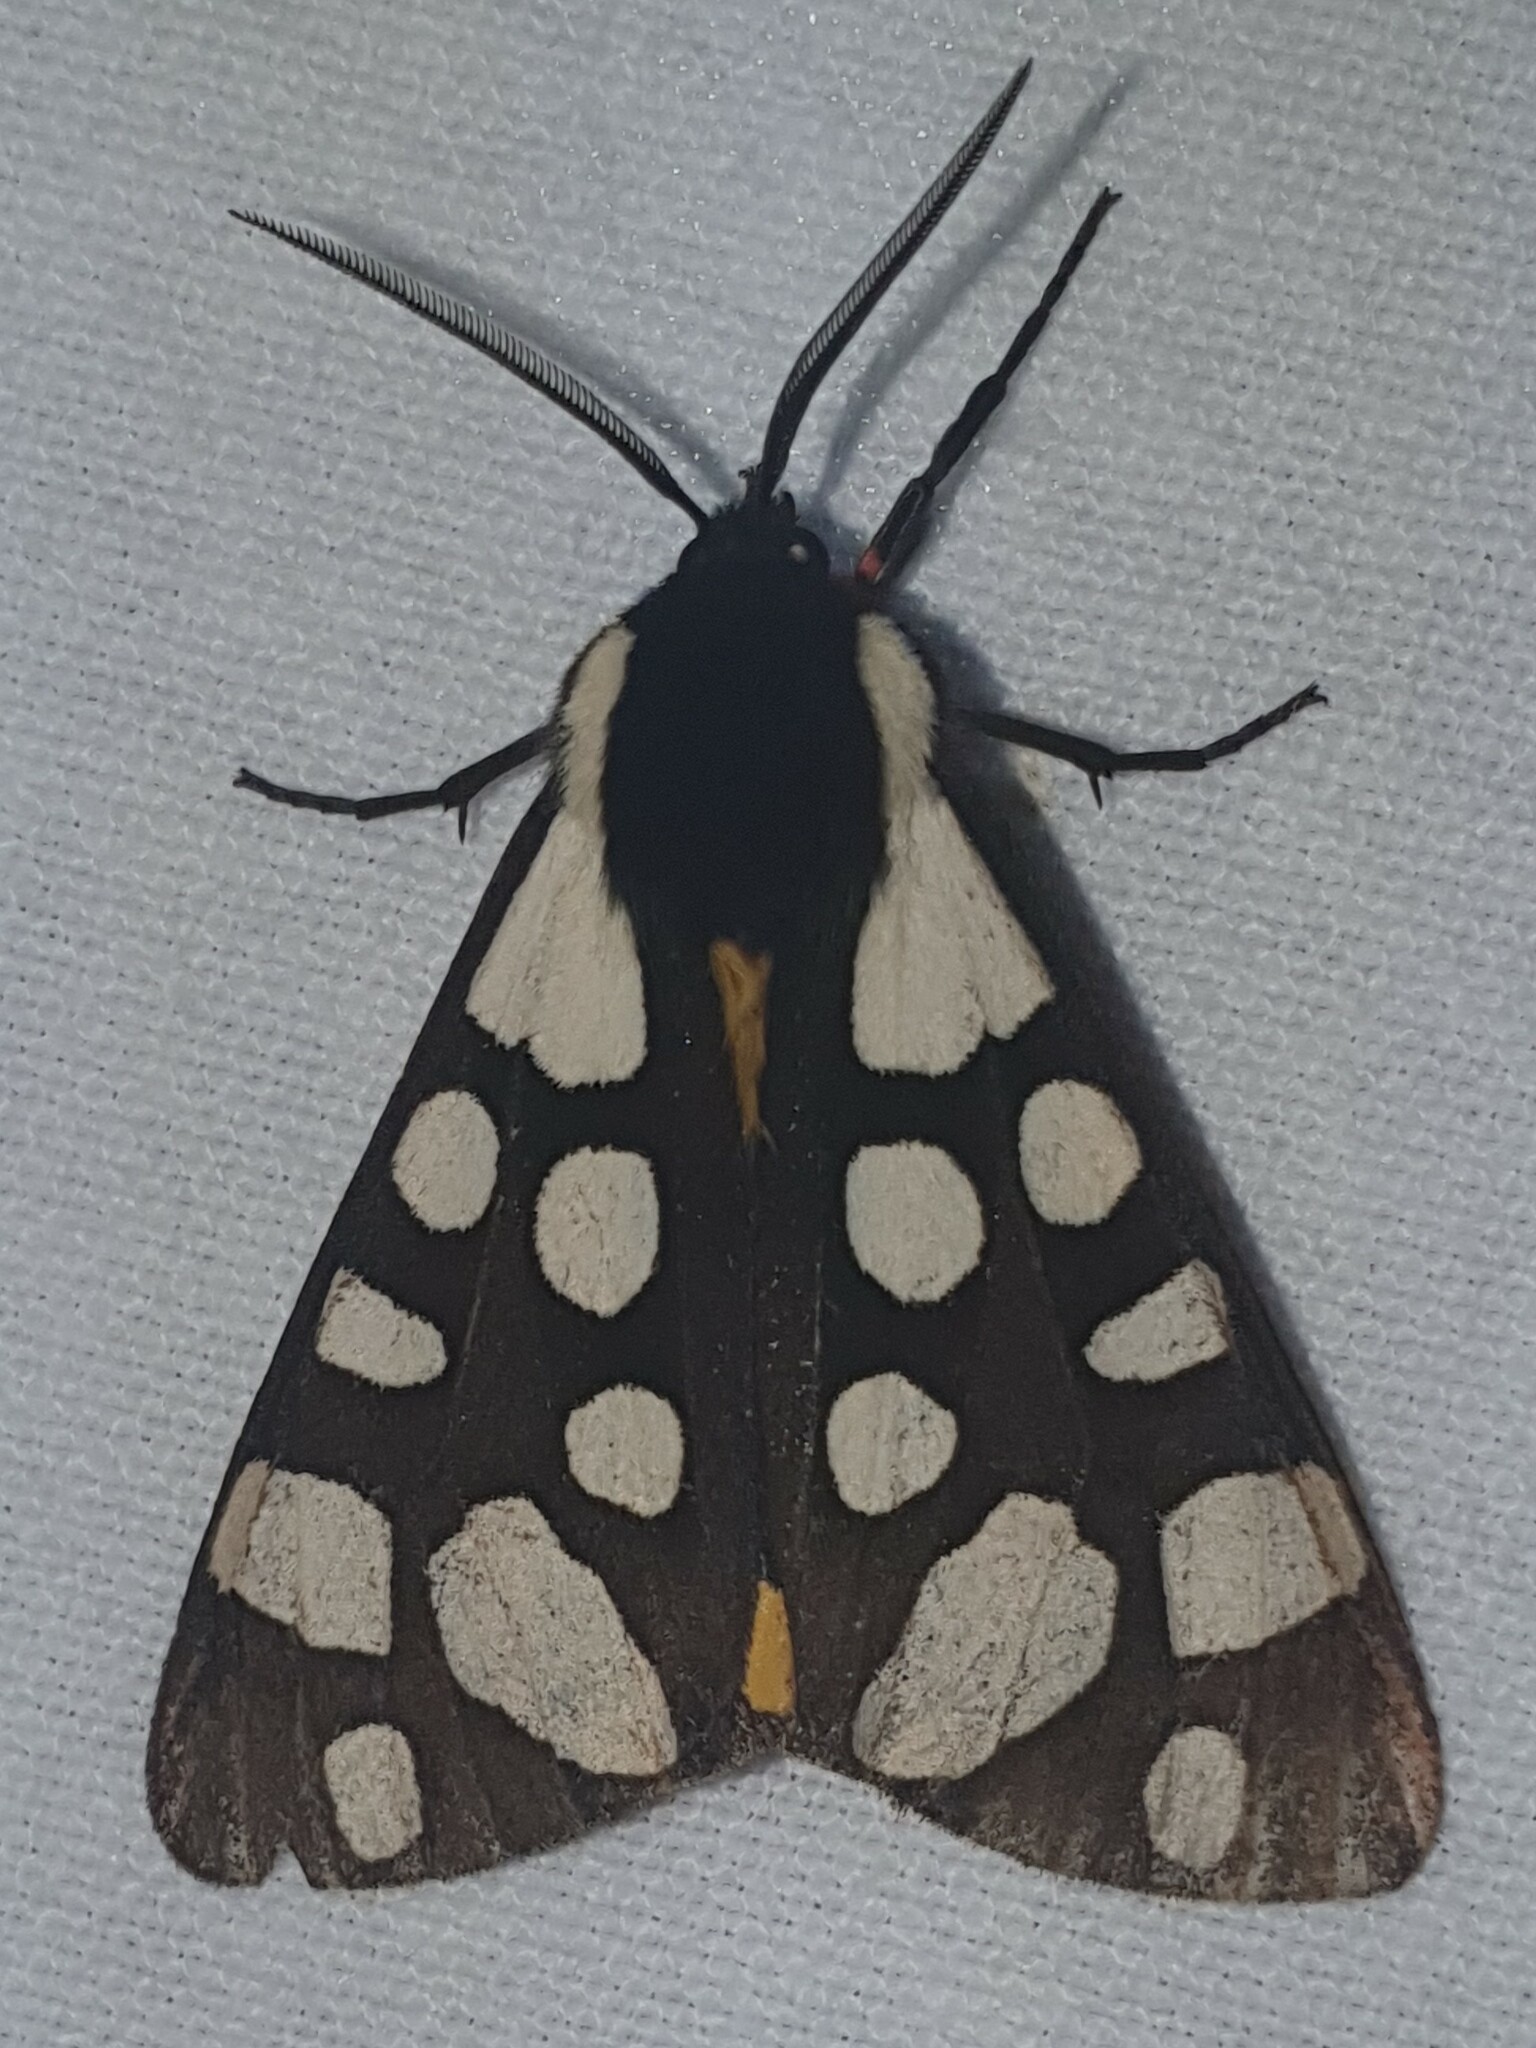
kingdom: Animalia
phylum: Arthropoda
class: Insecta
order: Lepidoptera
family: Erebidae
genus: Epicallia
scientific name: Epicallia villica
